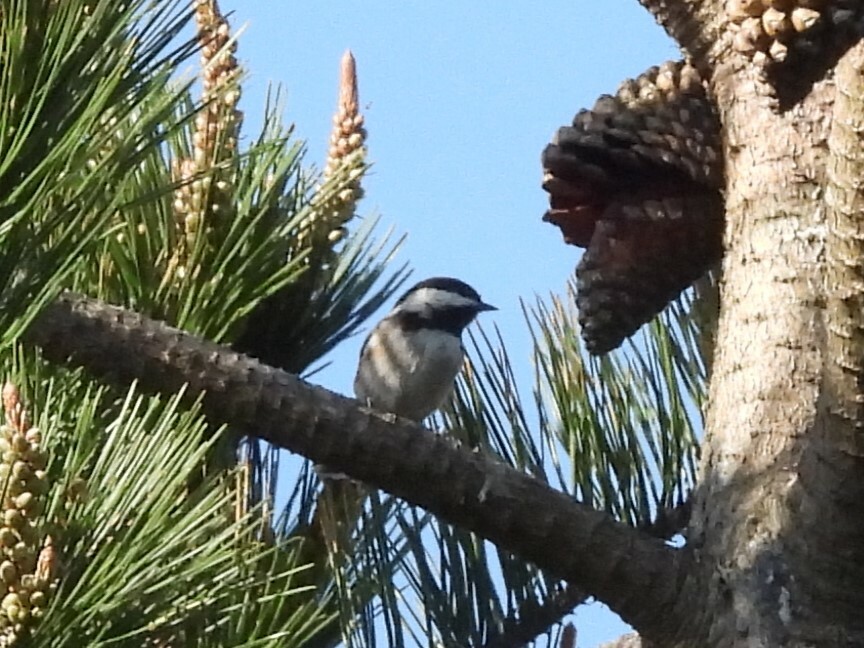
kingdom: Animalia
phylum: Chordata
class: Aves
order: Passeriformes
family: Paridae
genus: Poecile
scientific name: Poecile rufescens
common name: Chestnut-backed chickadee
